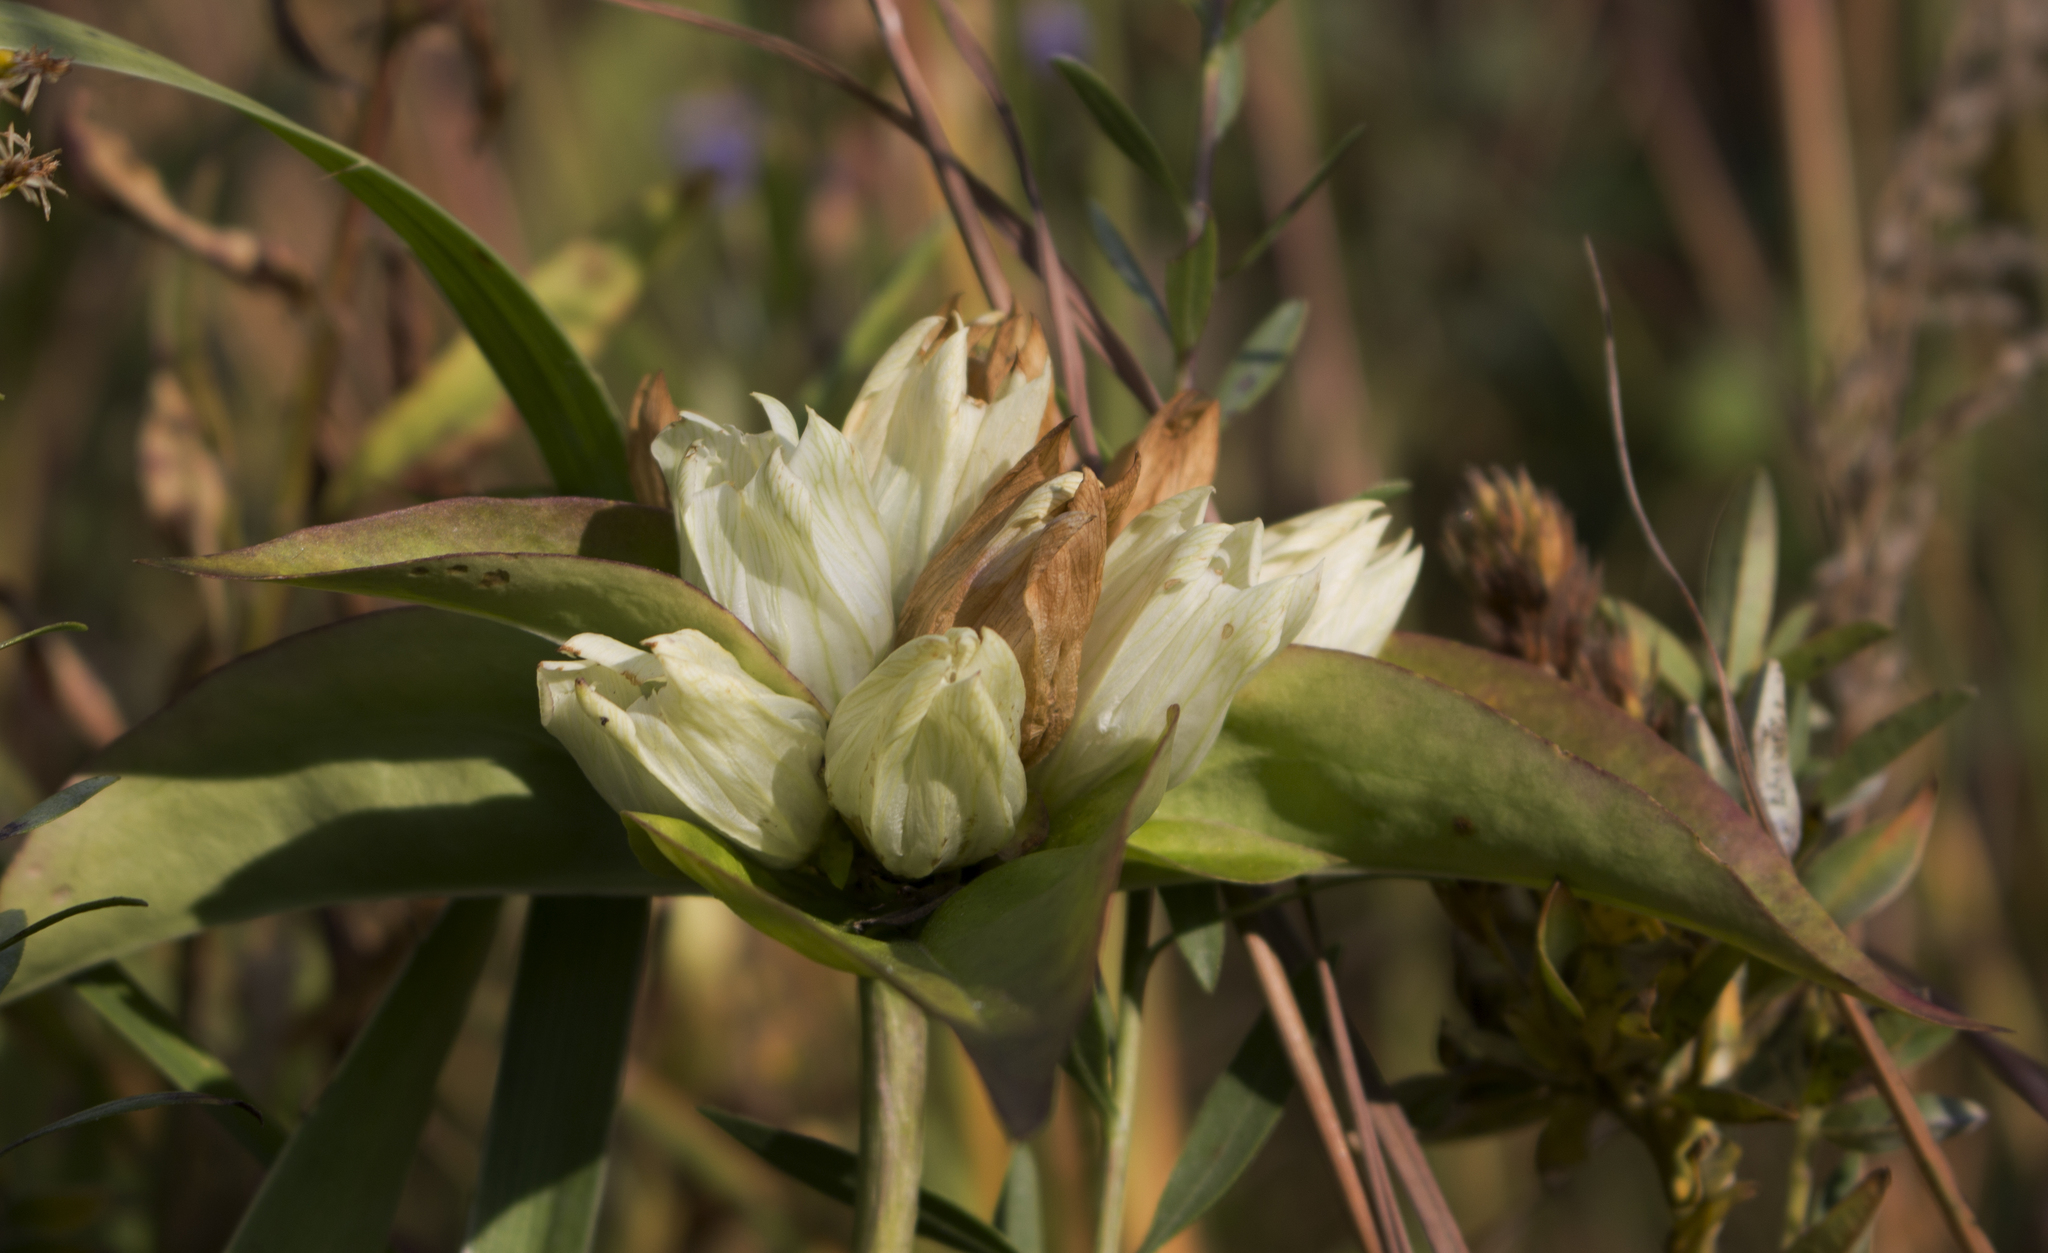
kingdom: Plantae
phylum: Tracheophyta
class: Magnoliopsida
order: Gentianales
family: Gentianaceae
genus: Gentiana
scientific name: Gentiana alba
